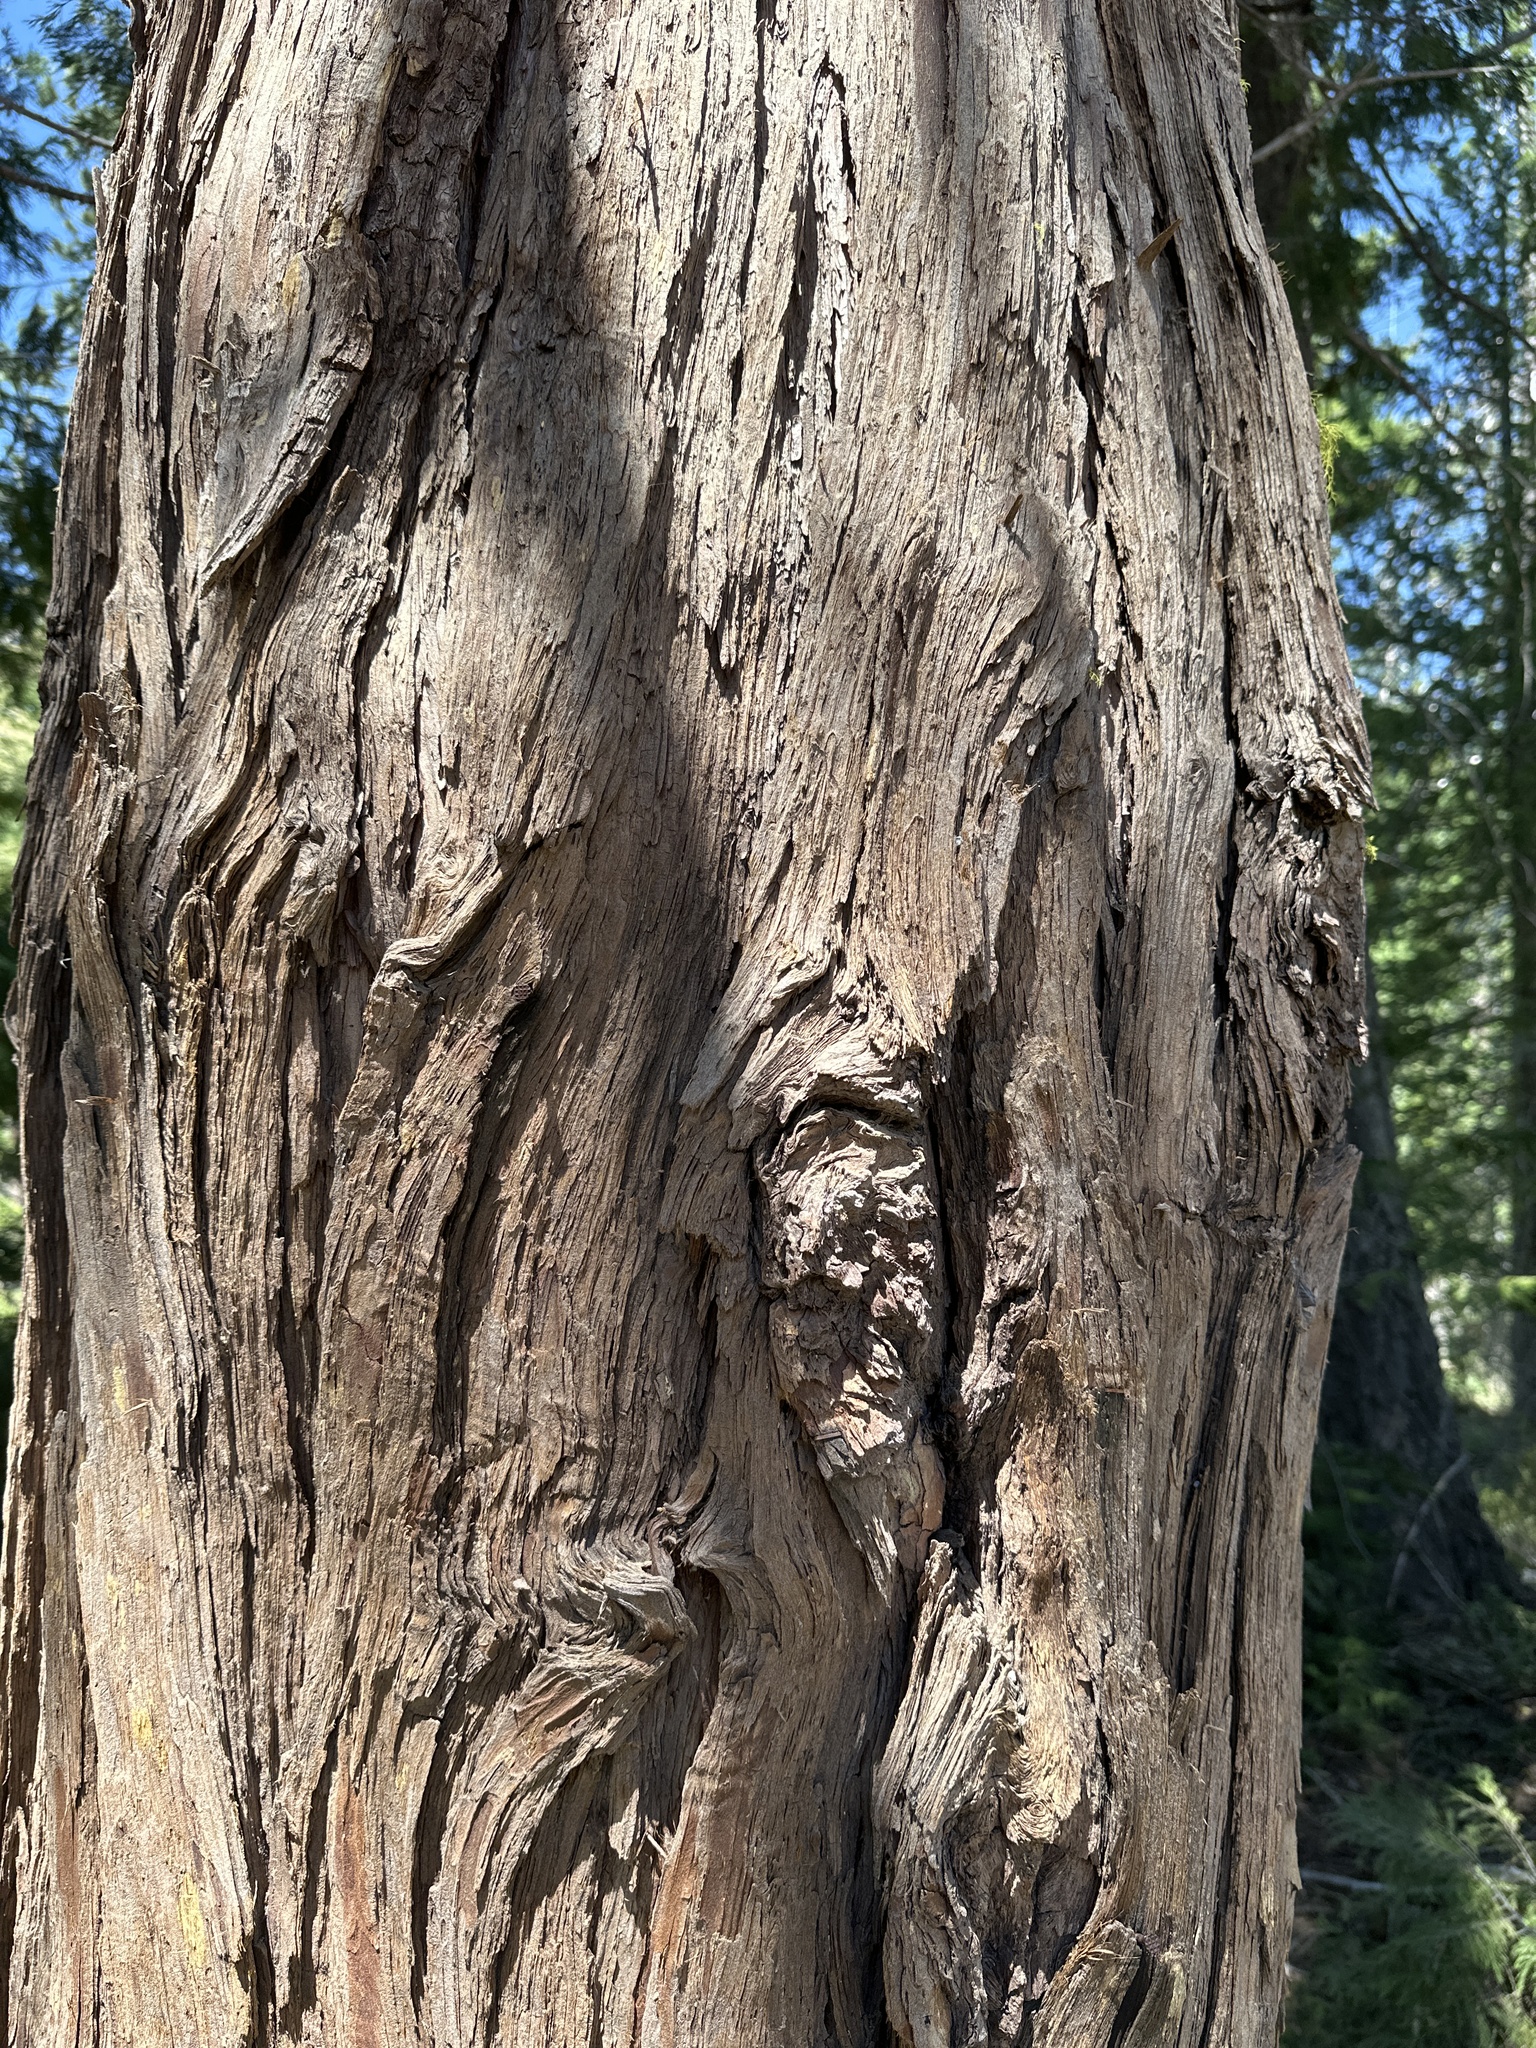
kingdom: Plantae
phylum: Tracheophyta
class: Pinopsida
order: Pinales
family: Cupressaceae
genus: Calocedrus
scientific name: Calocedrus decurrens
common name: Californian incense-cedar
